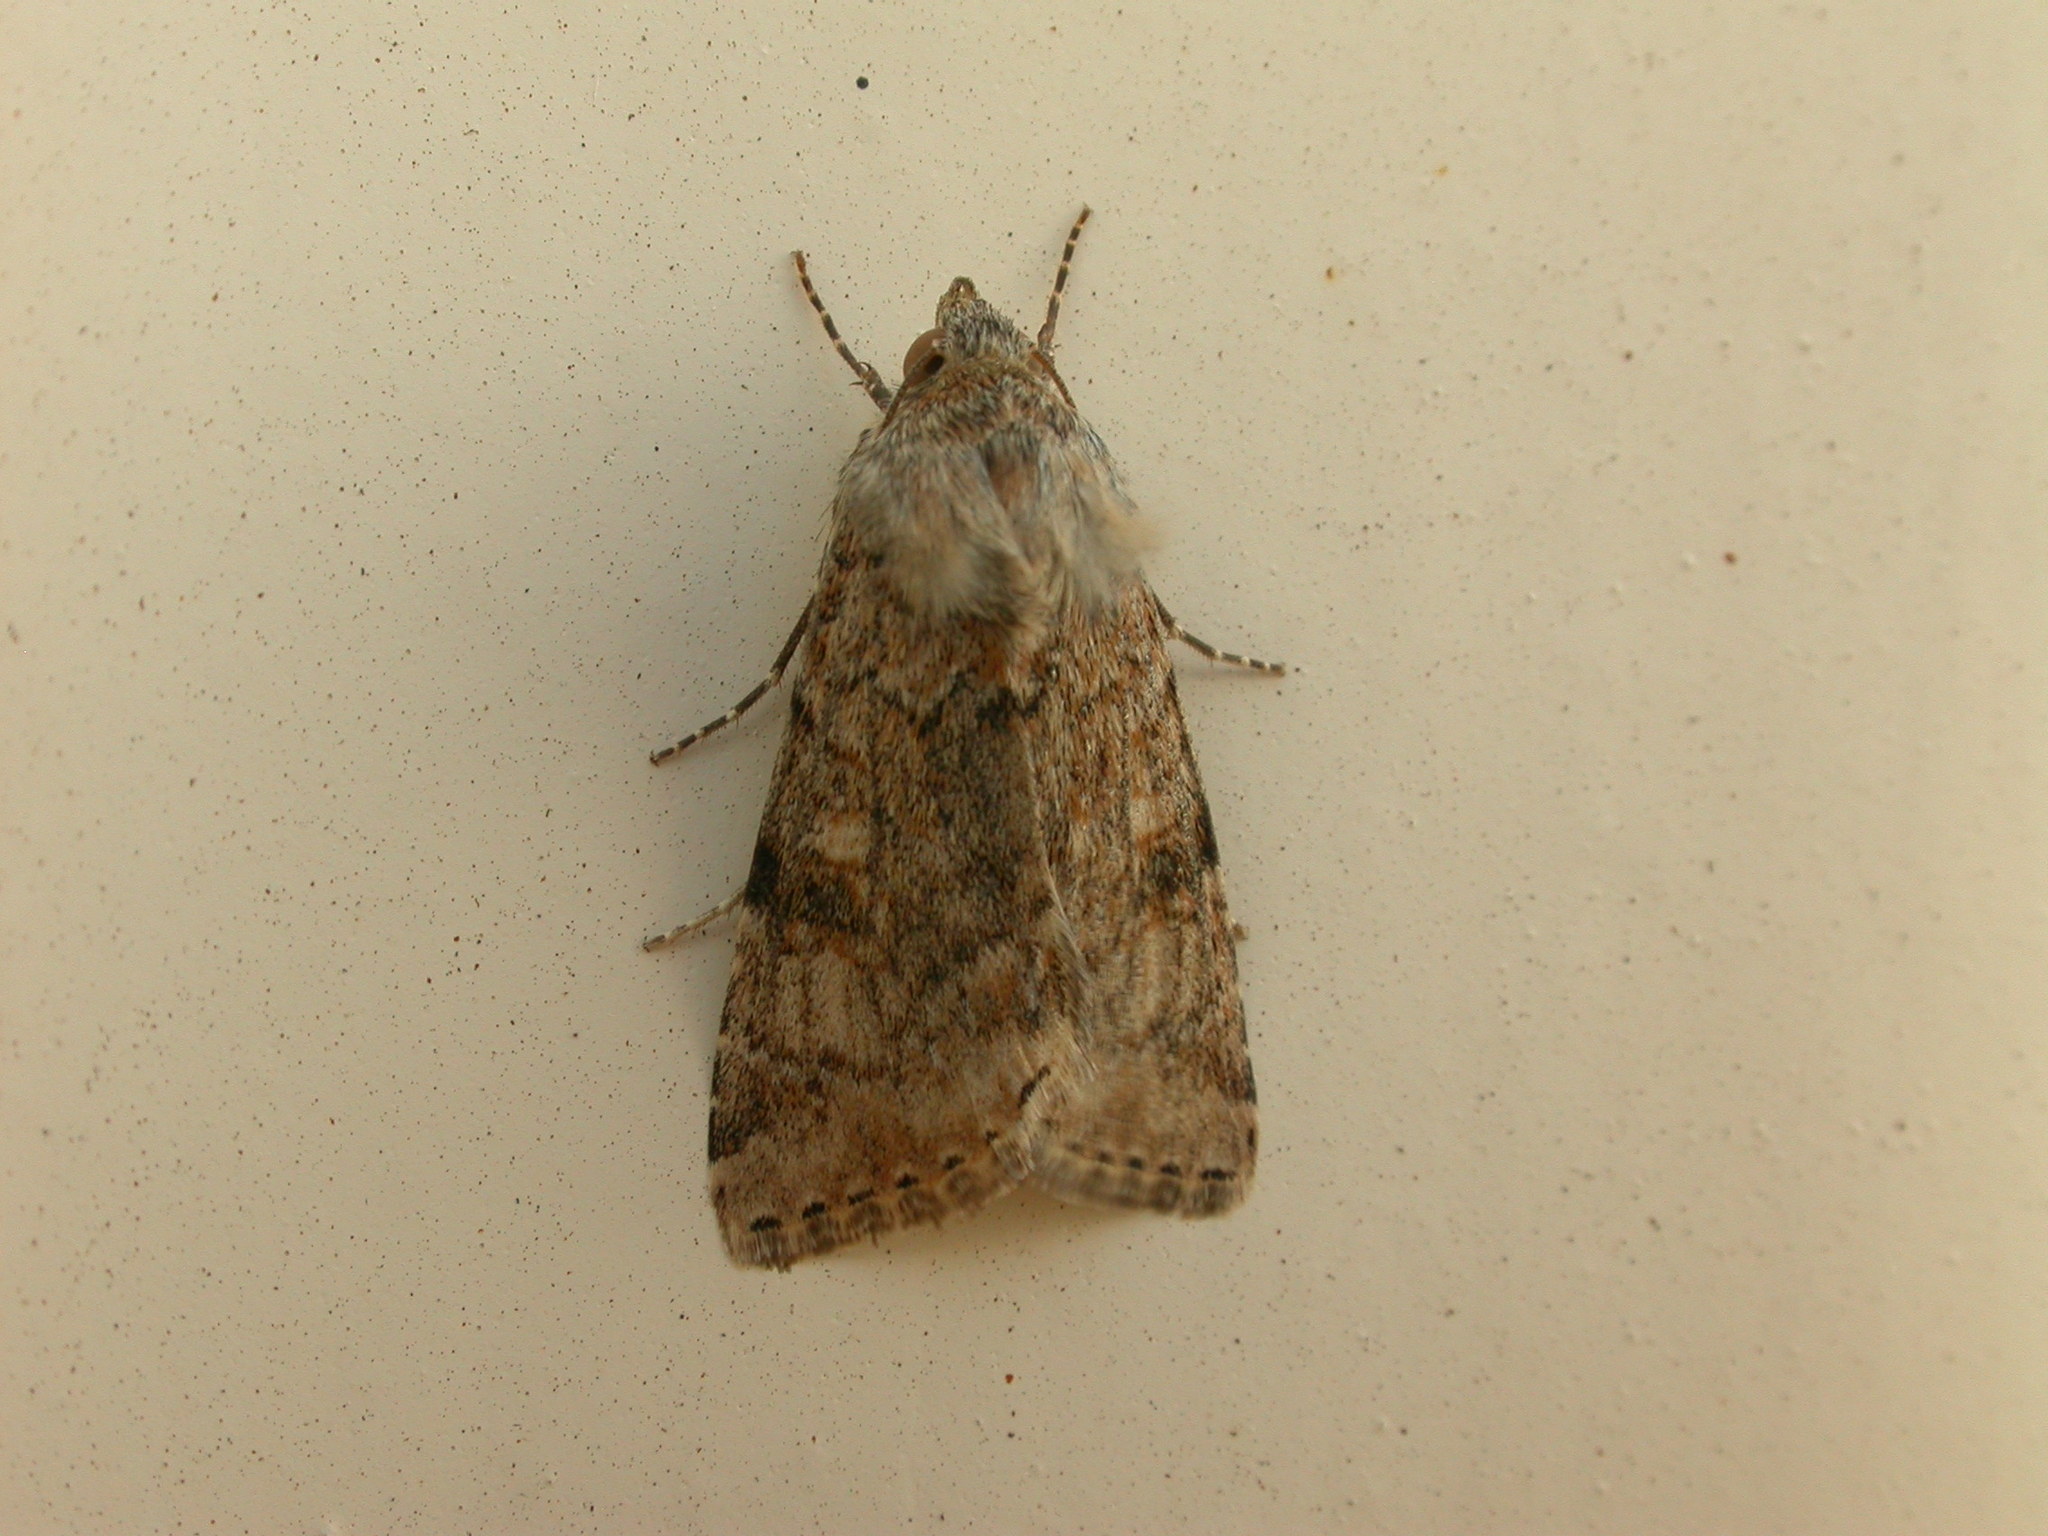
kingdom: Animalia
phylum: Arthropoda
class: Insecta
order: Lepidoptera
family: Noctuidae
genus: Heliothis
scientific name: Heliothis punctifera
